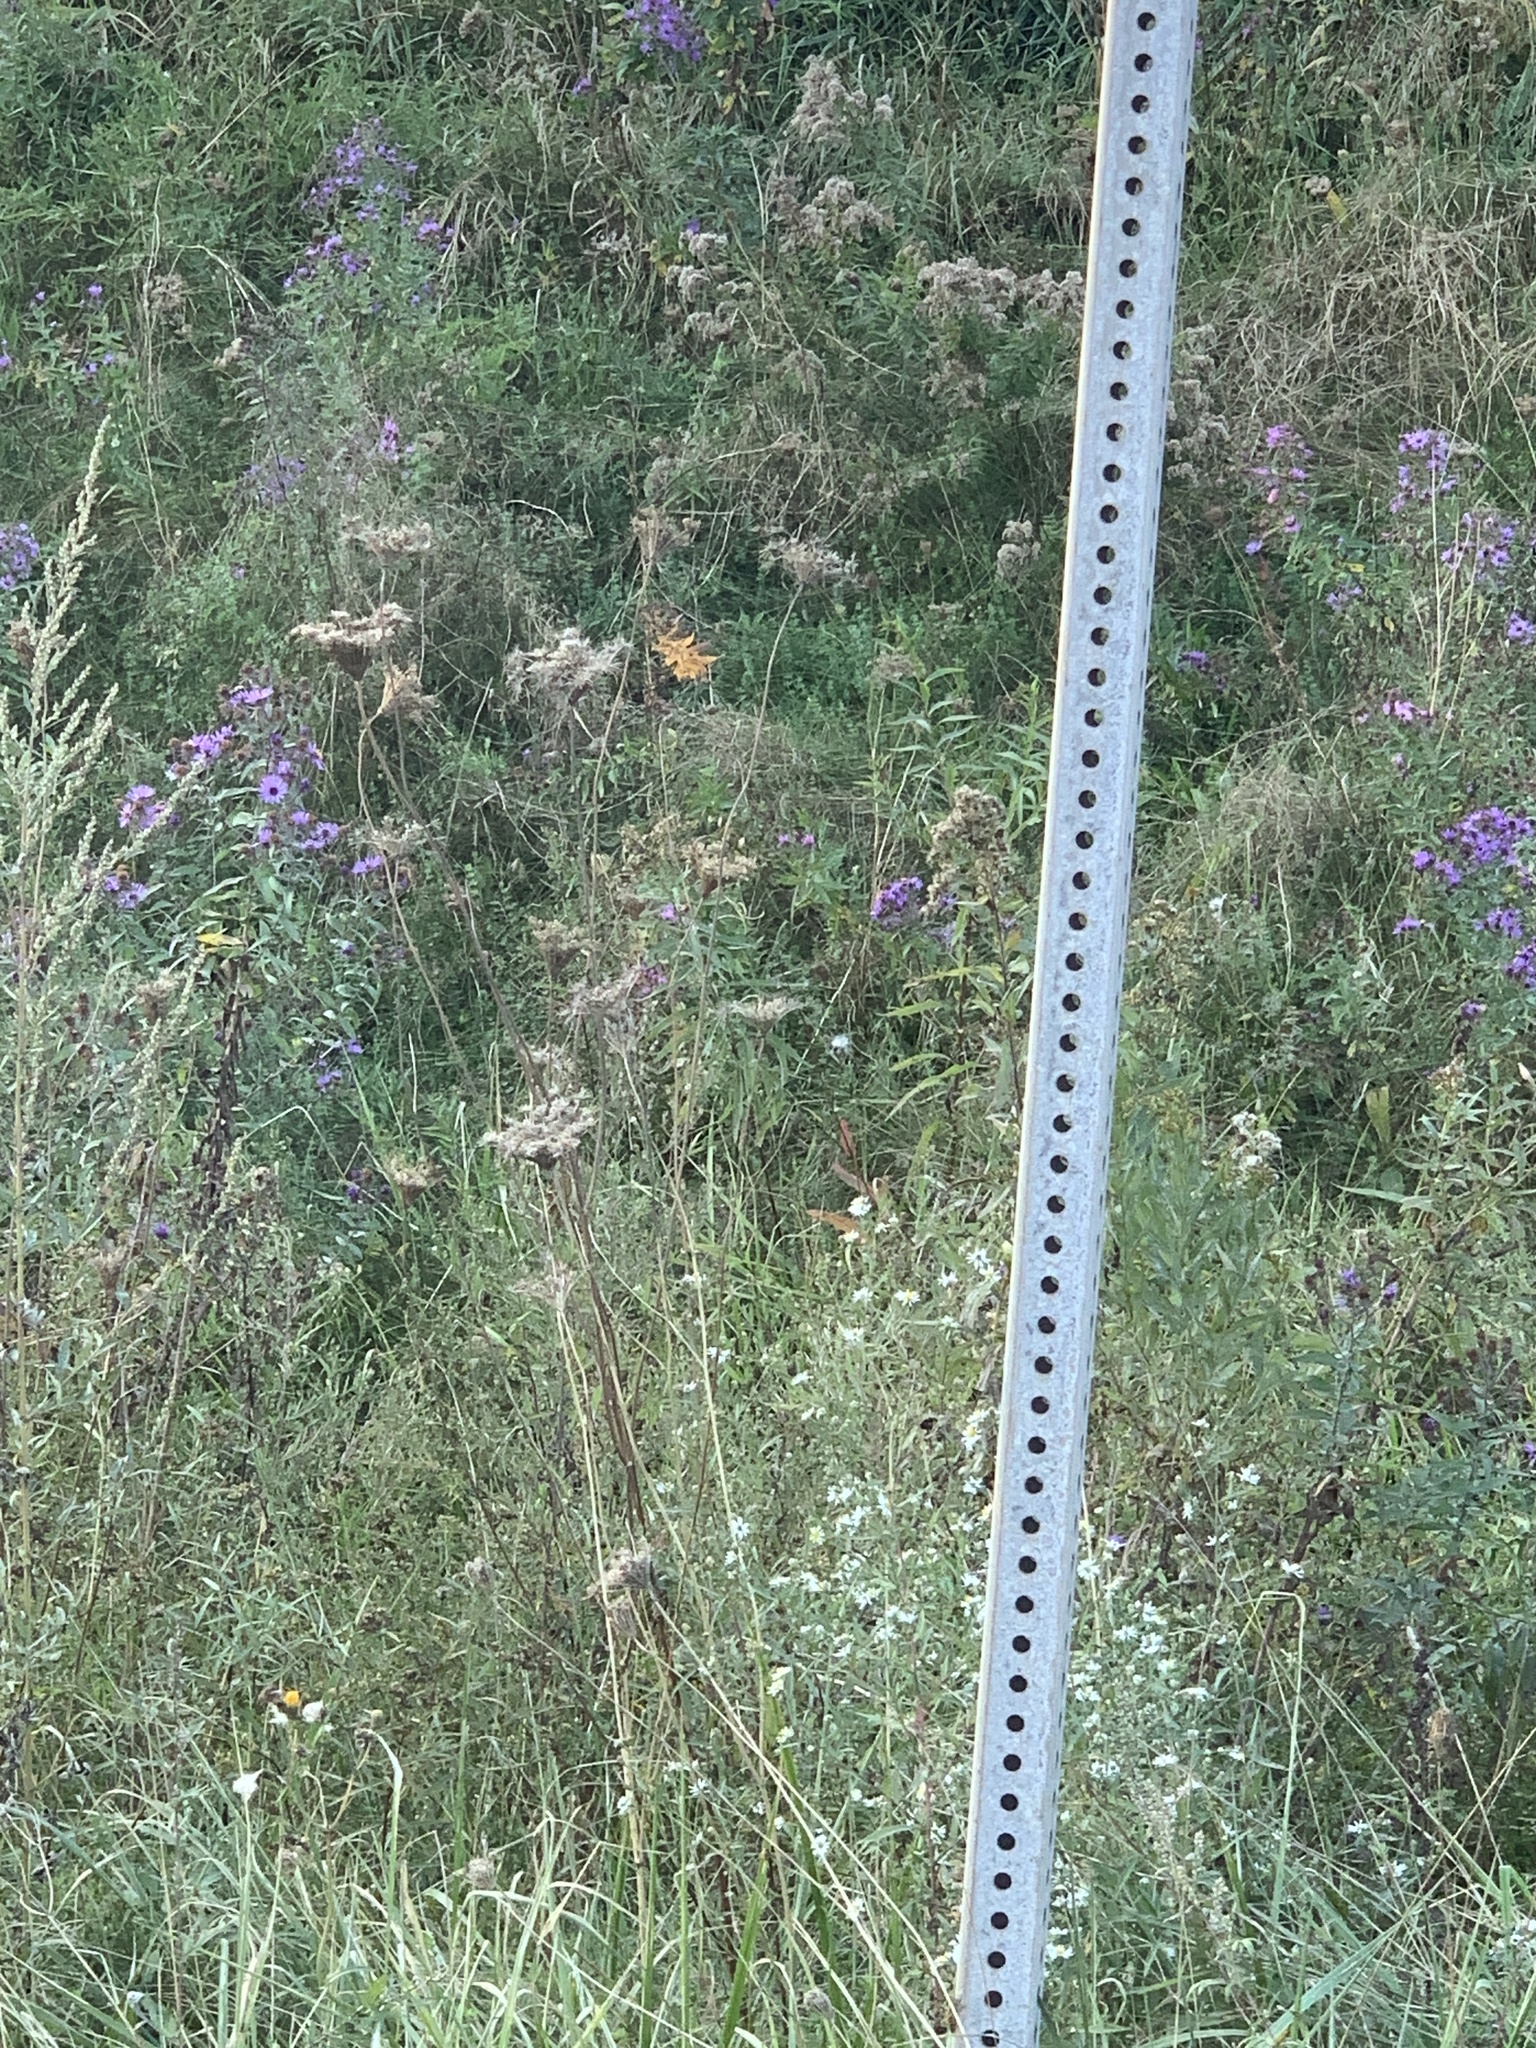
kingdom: Plantae
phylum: Tracheophyta
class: Magnoliopsida
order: Apiales
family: Apiaceae
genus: Daucus
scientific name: Daucus carota
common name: Wild carrot
